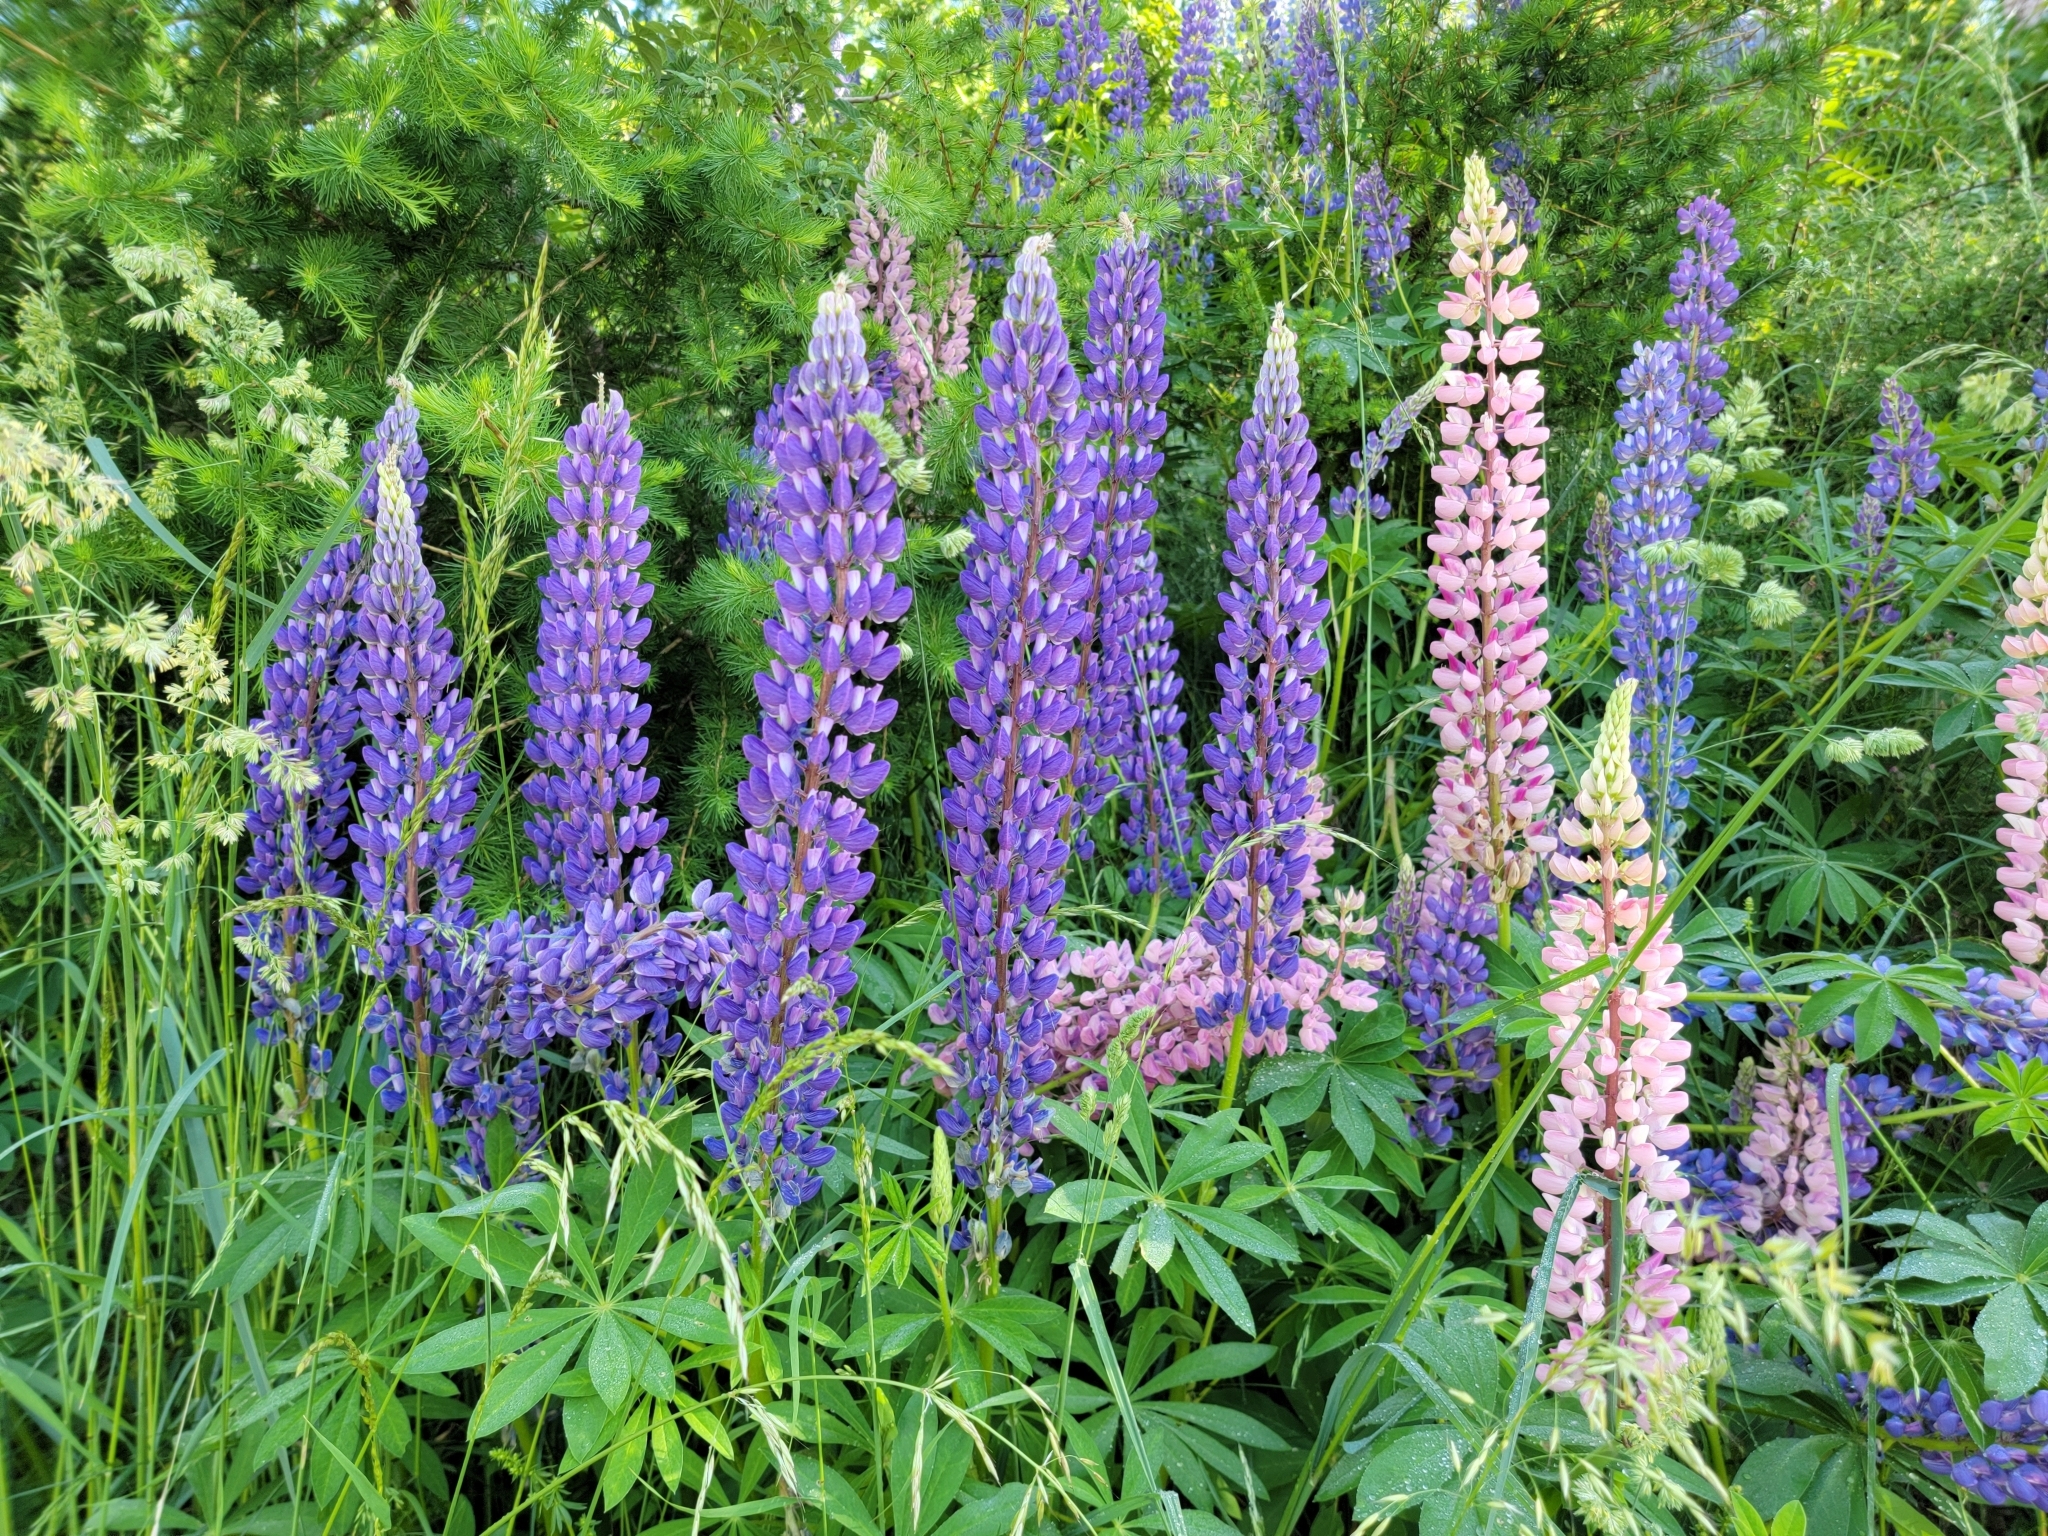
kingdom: Plantae
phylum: Tracheophyta
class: Magnoliopsida
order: Fabales
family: Fabaceae
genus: Lupinus
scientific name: Lupinus polyphyllus
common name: Garden lupin
